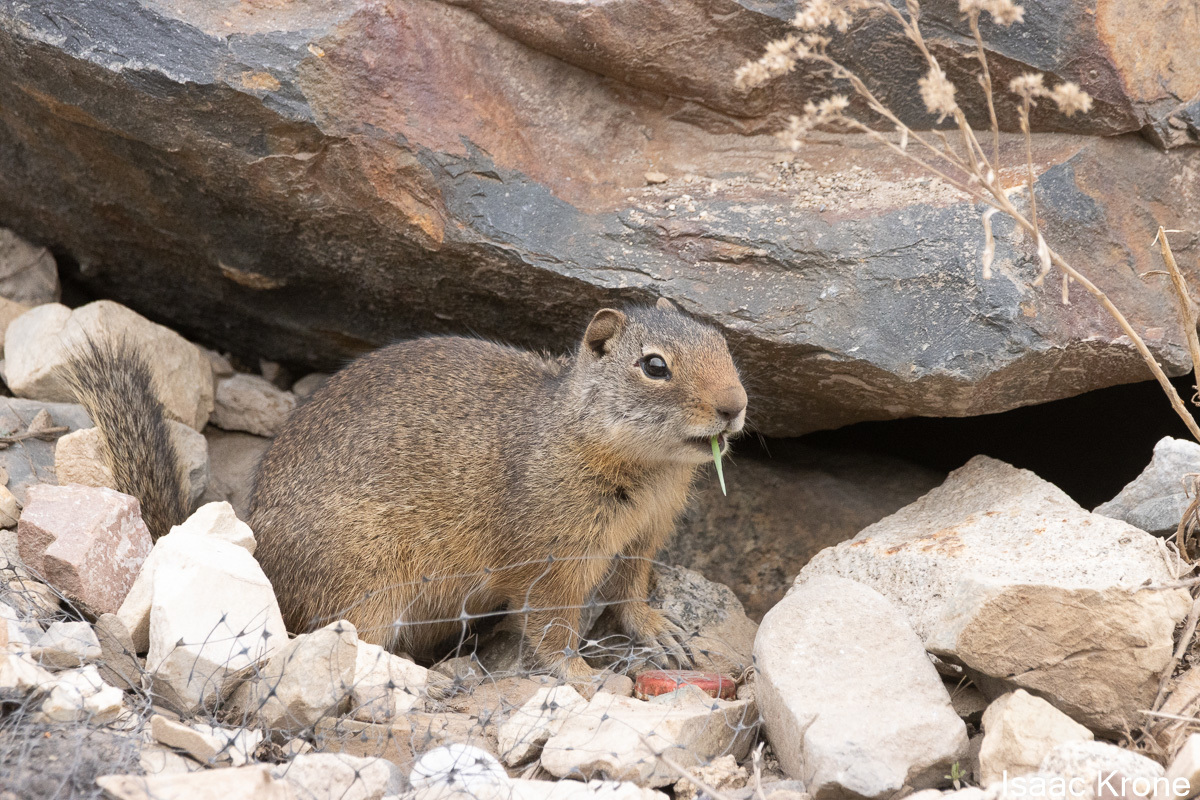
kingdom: Animalia
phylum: Chordata
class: Mammalia
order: Rodentia
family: Sciuridae
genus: Urocitellus
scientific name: Urocitellus armatus
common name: Uinta ground squirrel
